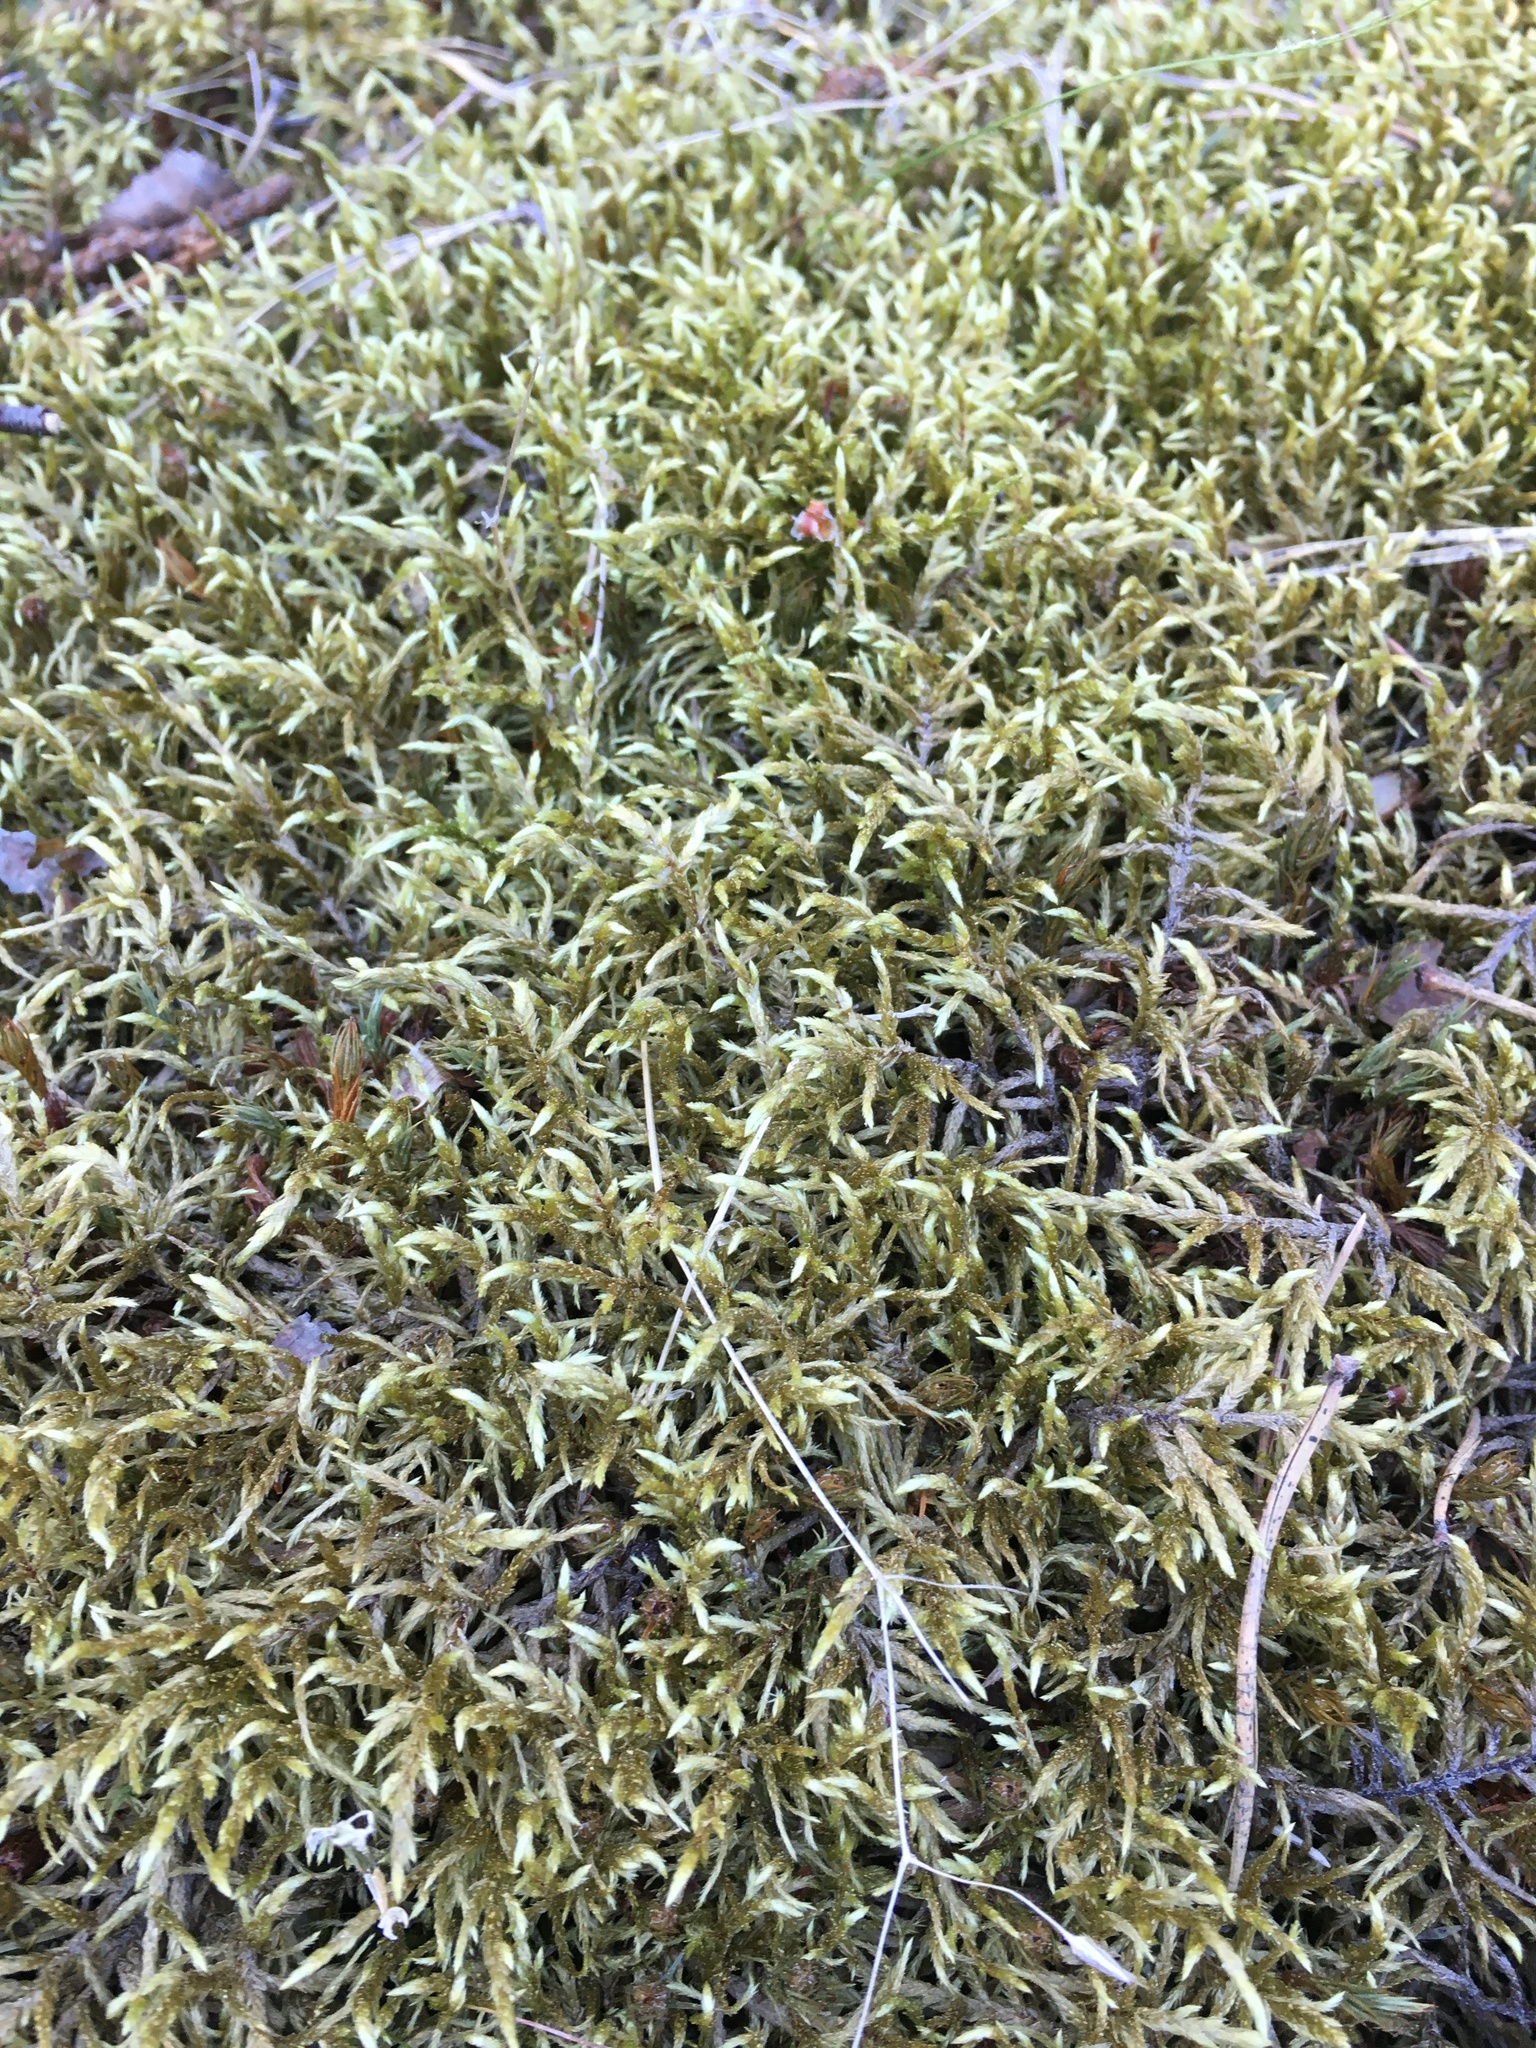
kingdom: Plantae
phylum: Bryophyta
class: Bryopsida
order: Hypnales
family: Hylocomiaceae
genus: Pleurozium
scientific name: Pleurozium schreberi
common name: Red-stemmed feather moss
